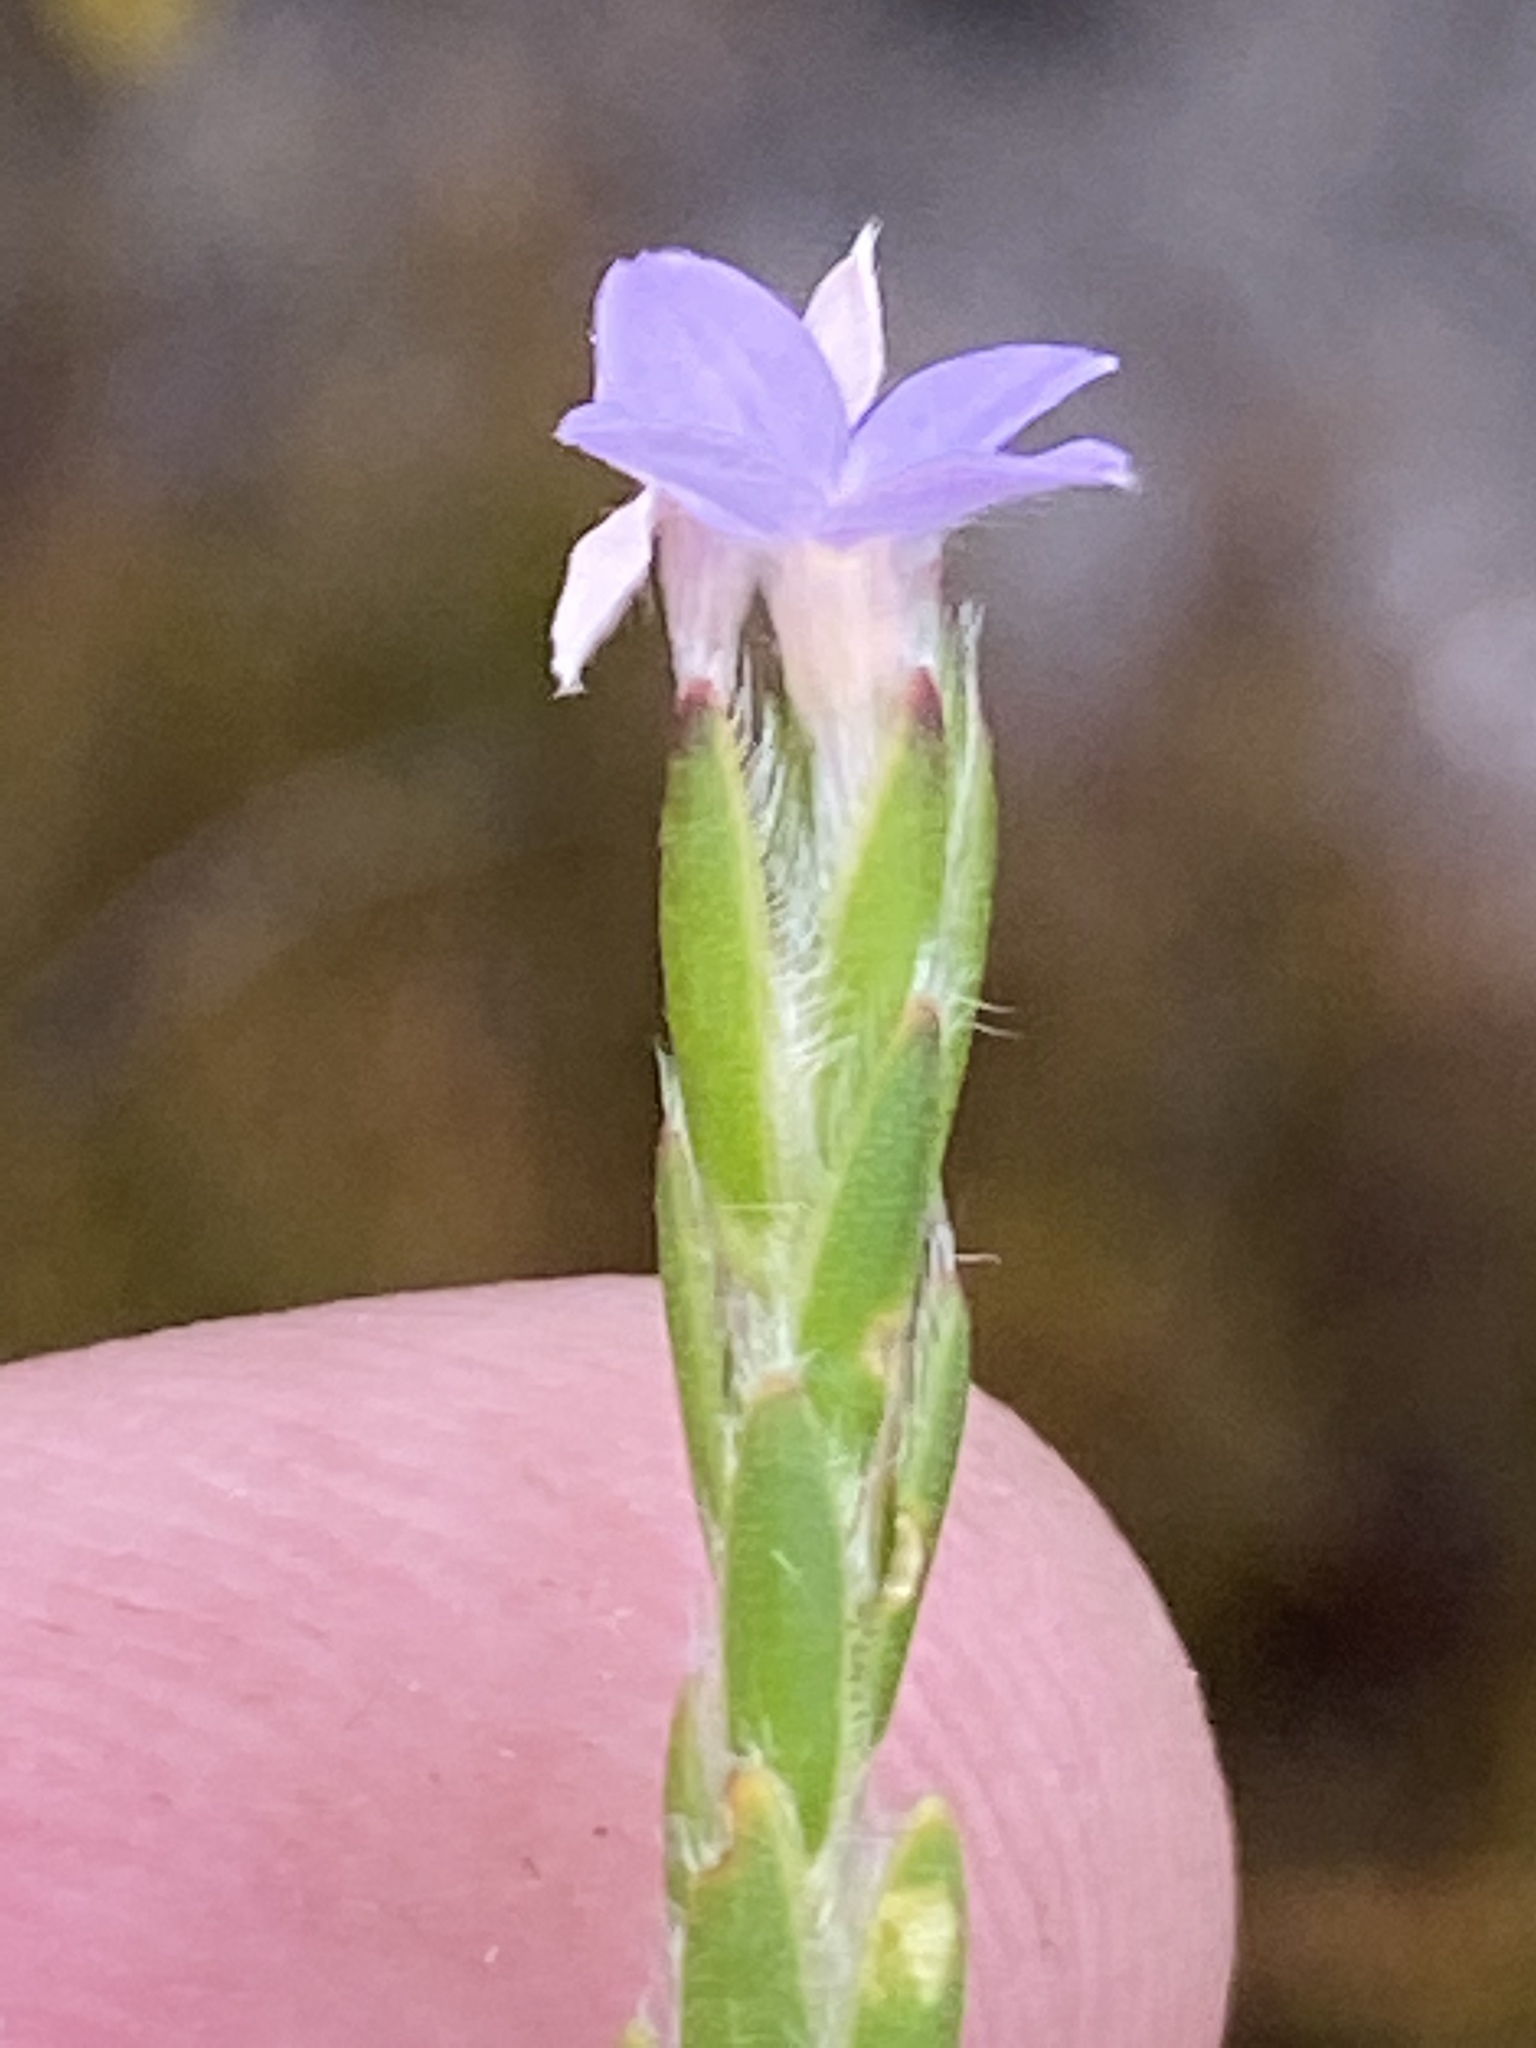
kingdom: Plantae
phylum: Tracheophyta
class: Magnoliopsida
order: Malvales
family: Thymelaeaceae
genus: Gnidia
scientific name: Gnidia penicillata
